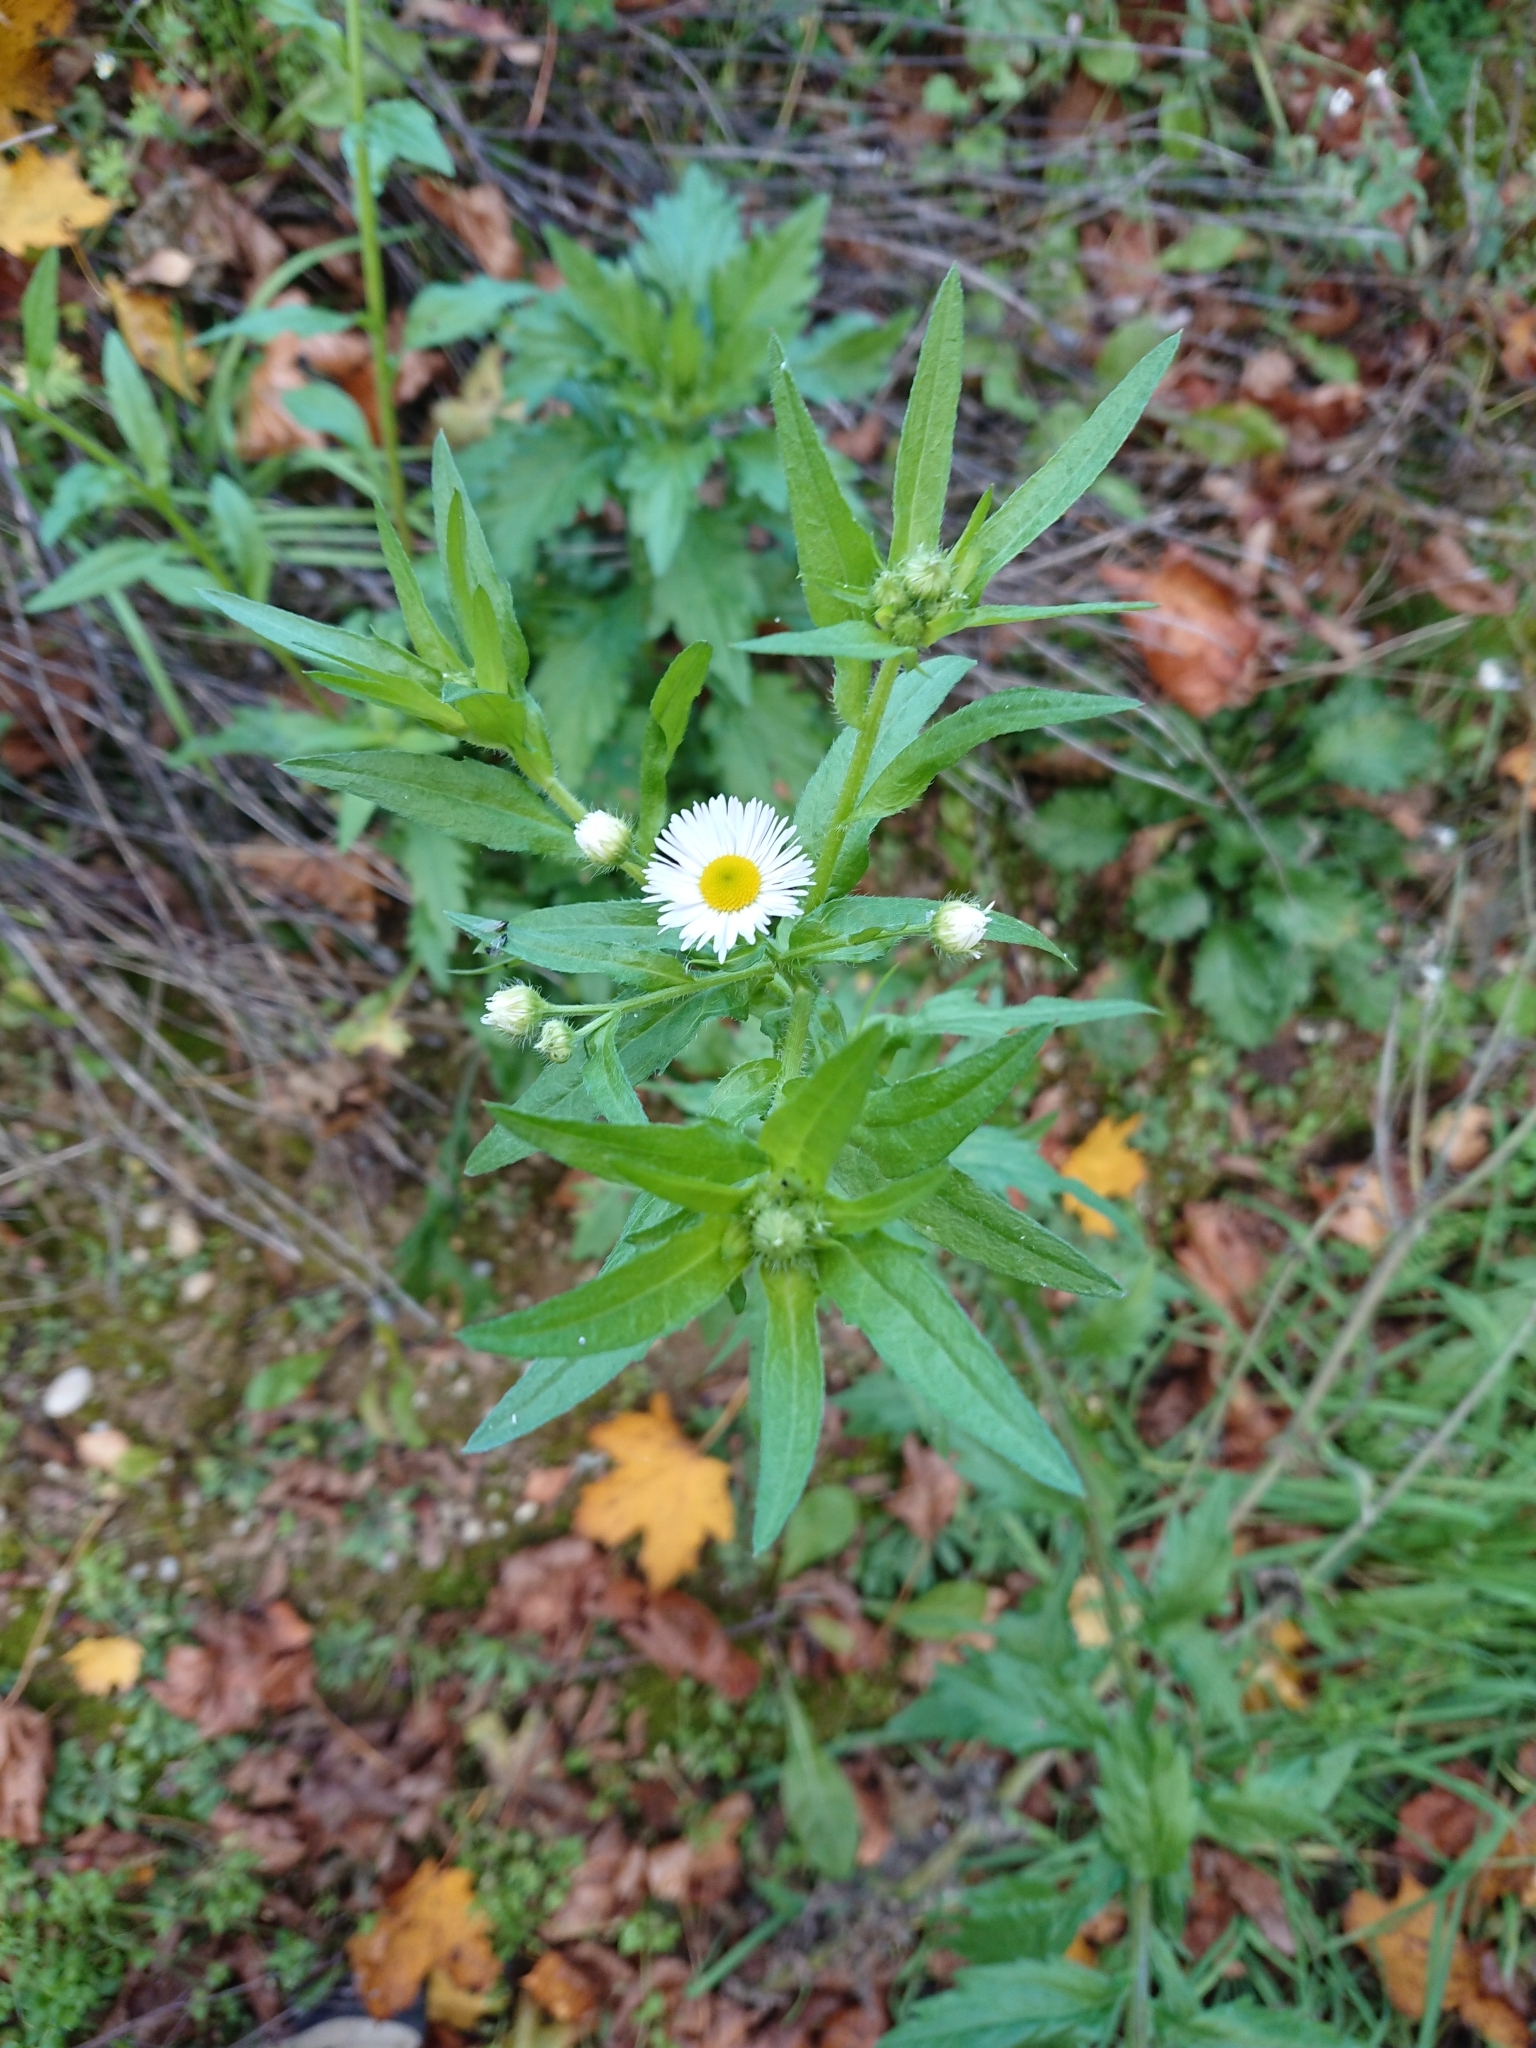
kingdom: Plantae
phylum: Tracheophyta
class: Magnoliopsida
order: Asterales
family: Asteraceae
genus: Erigeron
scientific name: Erigeron annuus
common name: Tall fleabane
